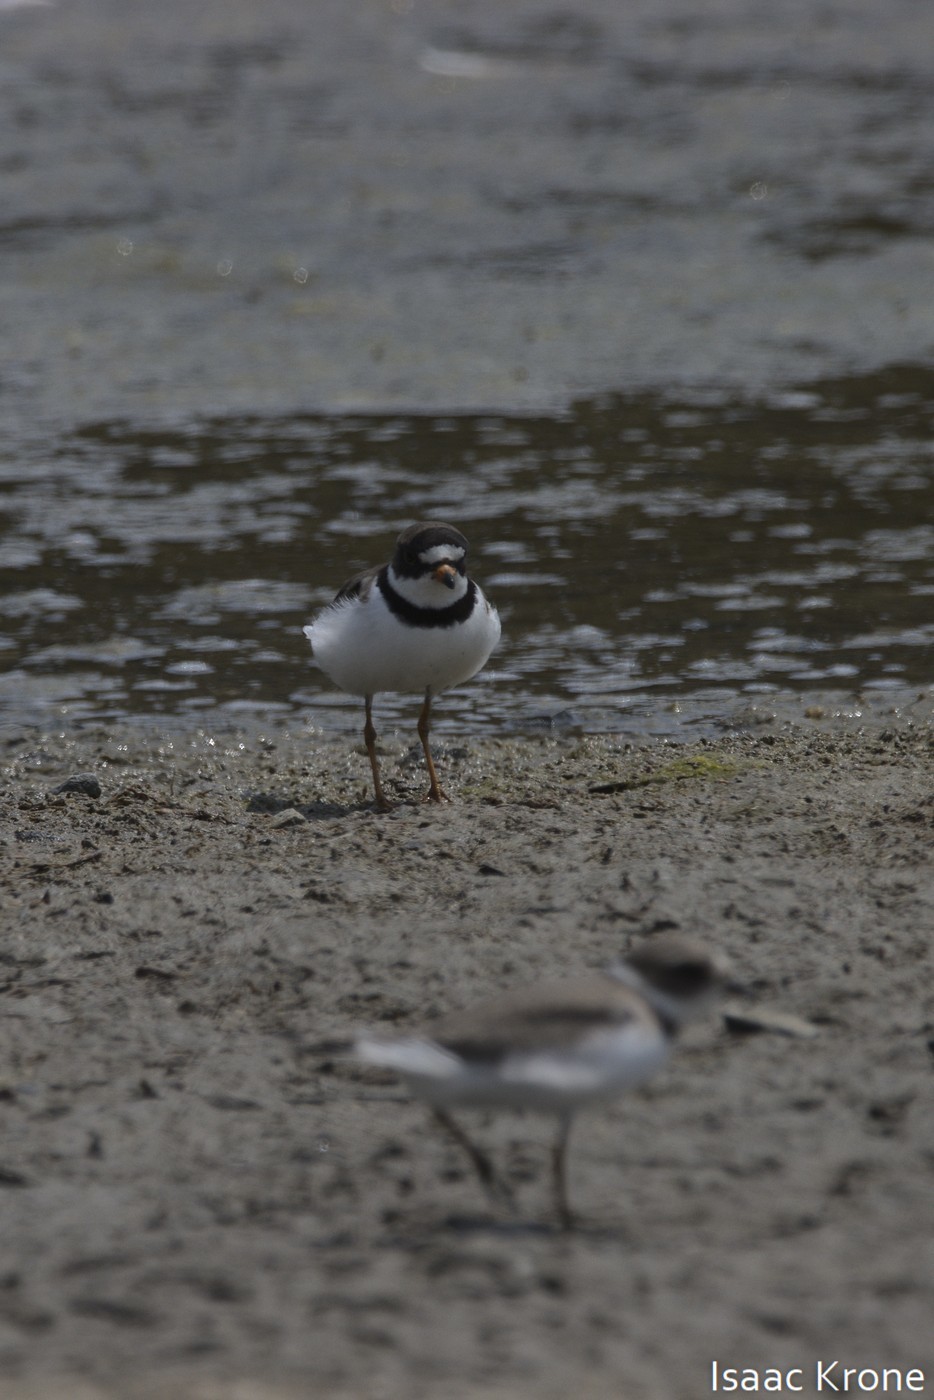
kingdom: Animalia
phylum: Chordata
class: Aves
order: Charadriiformes
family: Charadriidae
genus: Charadrius
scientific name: Charadrius semipalmatus
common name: Semipalmated plover
